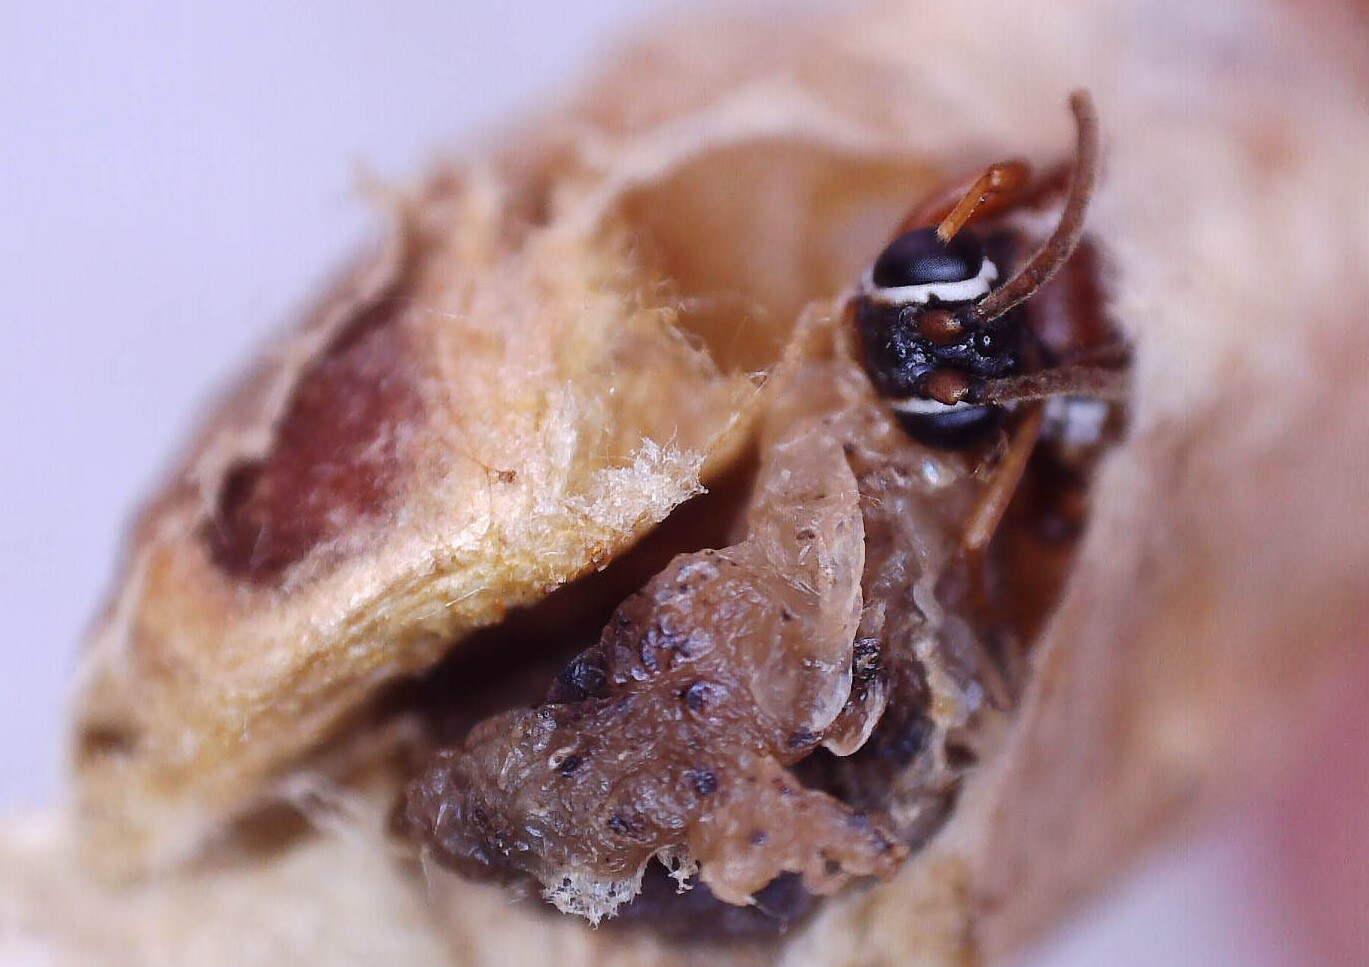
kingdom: Animalia
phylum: Arthropoda
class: Insecta
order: Hymenoptera
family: Ichneumonidae
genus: Sphecophaga
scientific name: Sphecophaga vesparum
